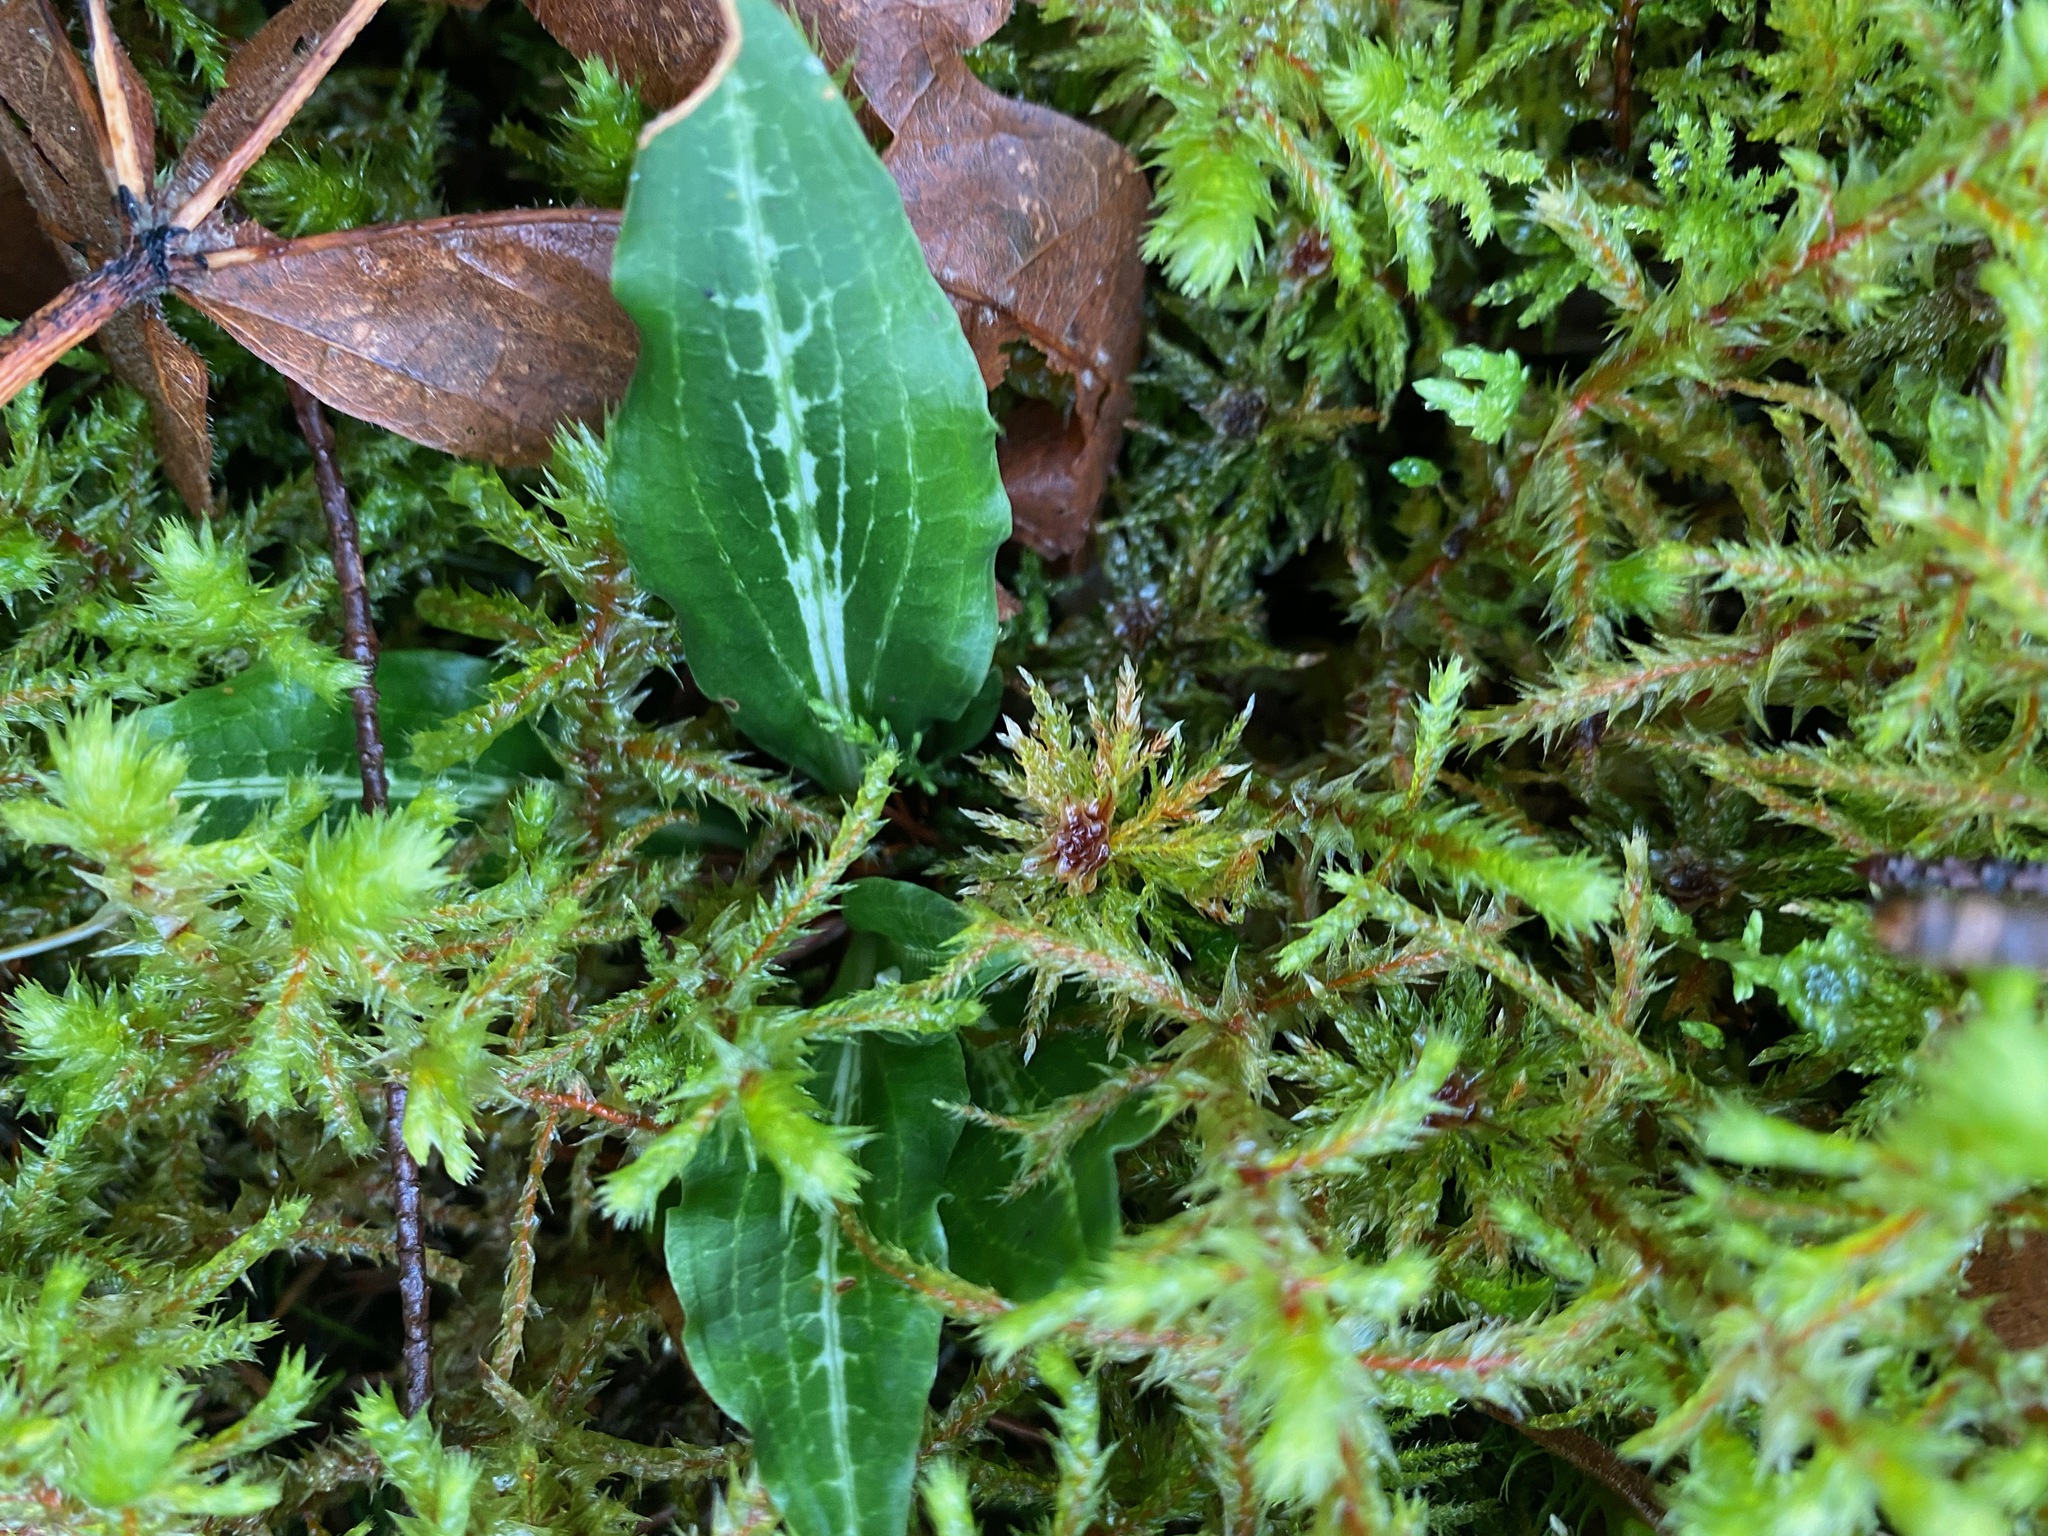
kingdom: Plantae
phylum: Tracheophyta
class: Liliopsida
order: Asparagales
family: Orchidaceae
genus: Goodyera
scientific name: Goodyera oblongifolia
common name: Giant rattlesnake-plantain
